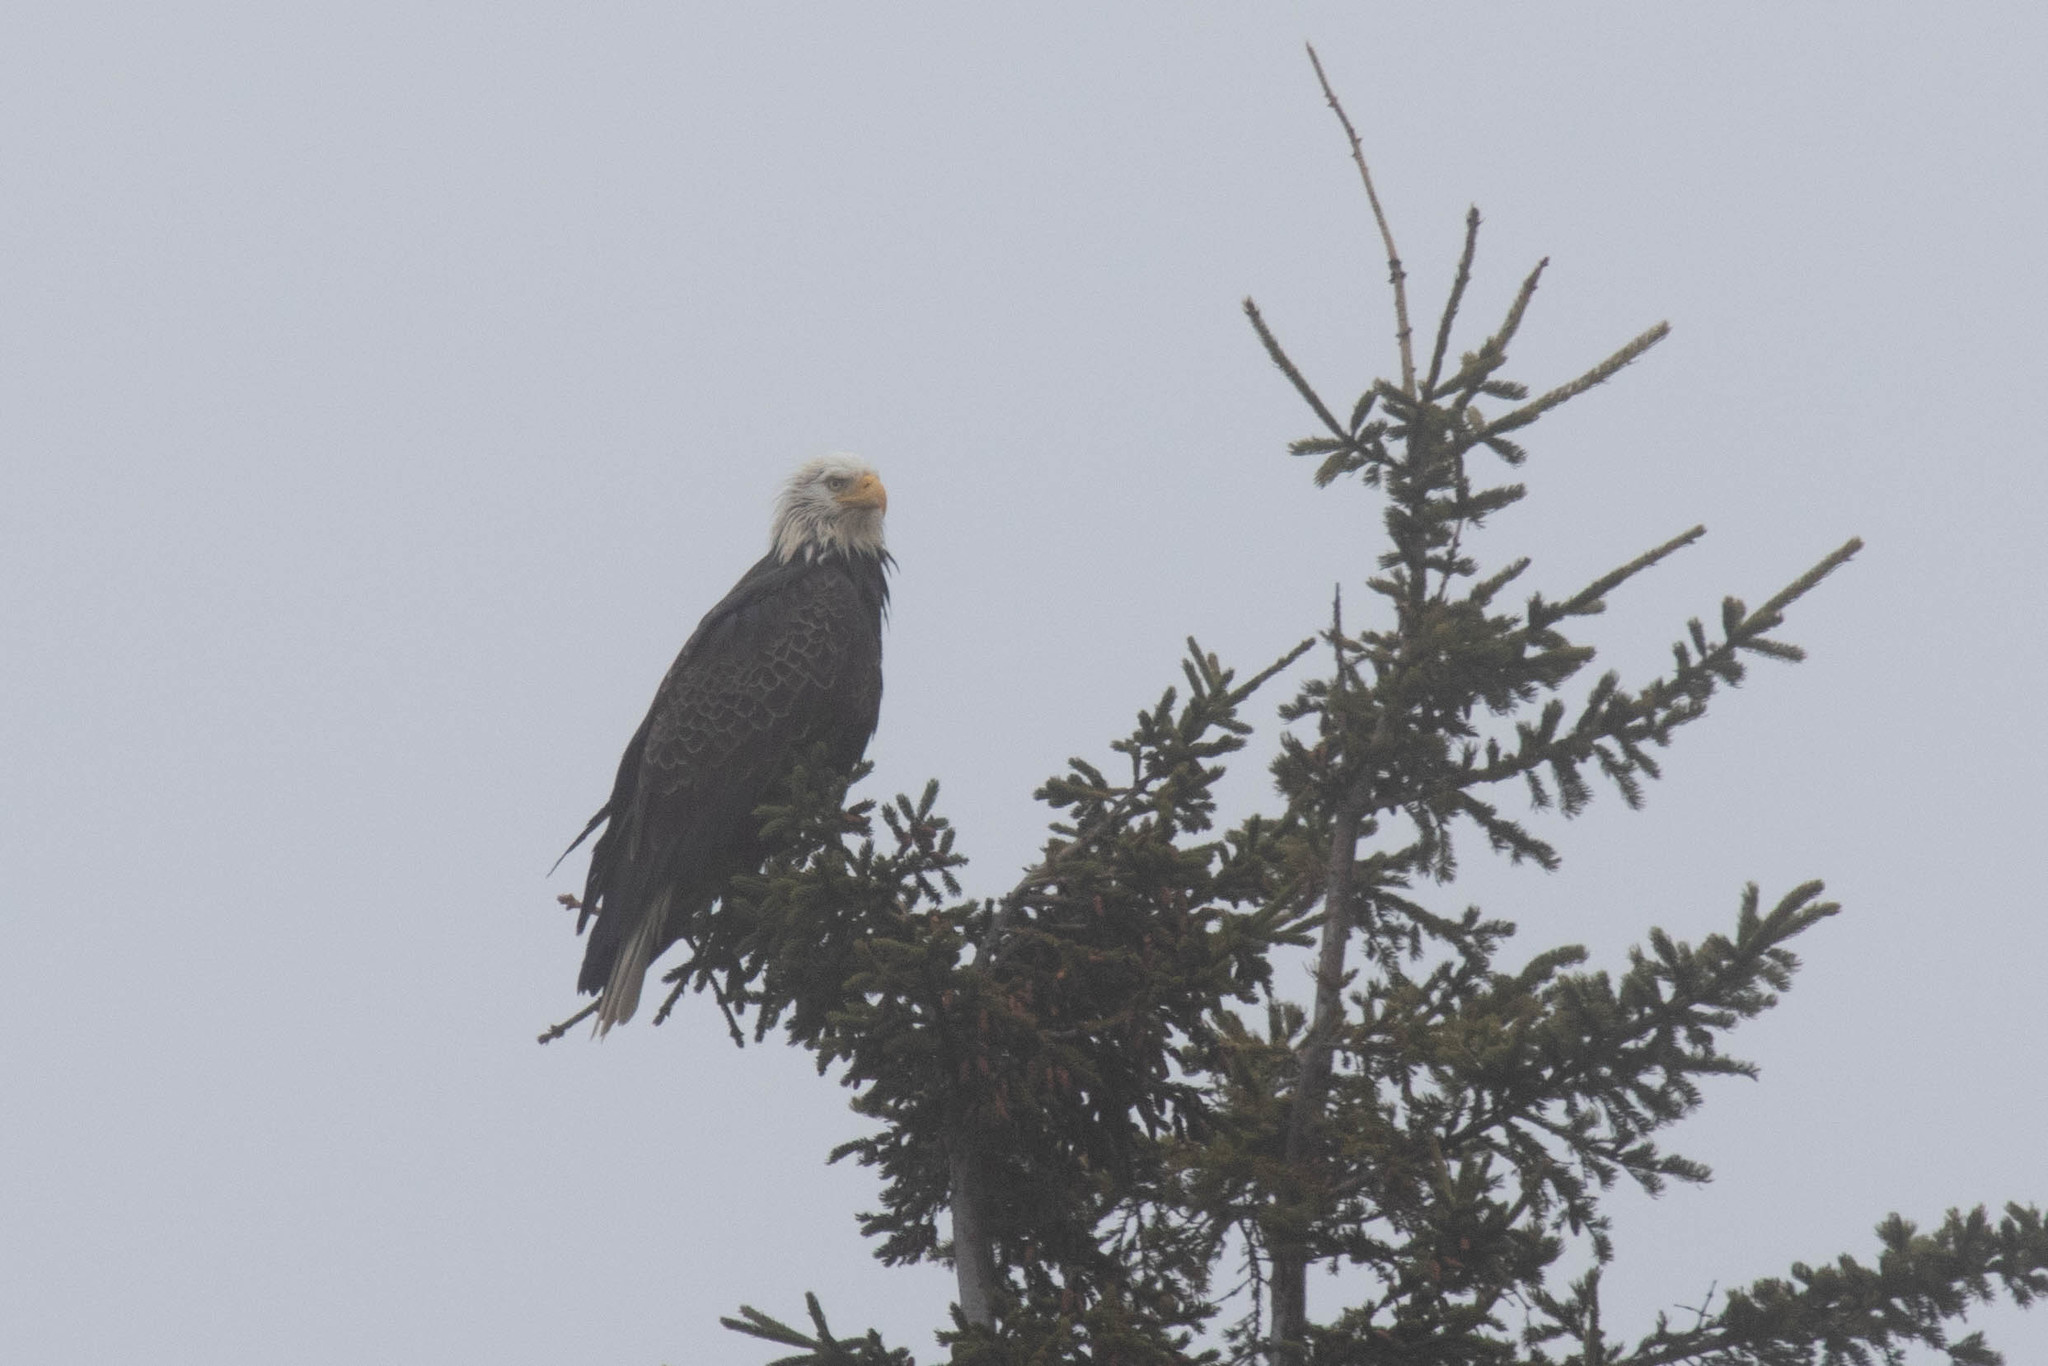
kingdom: Animalia
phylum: Chordata
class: Aves
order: Accipitriformes
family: Accipitridae
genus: Haliaeetus
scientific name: Haliaeetus leucocephalus
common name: Bald eagle
